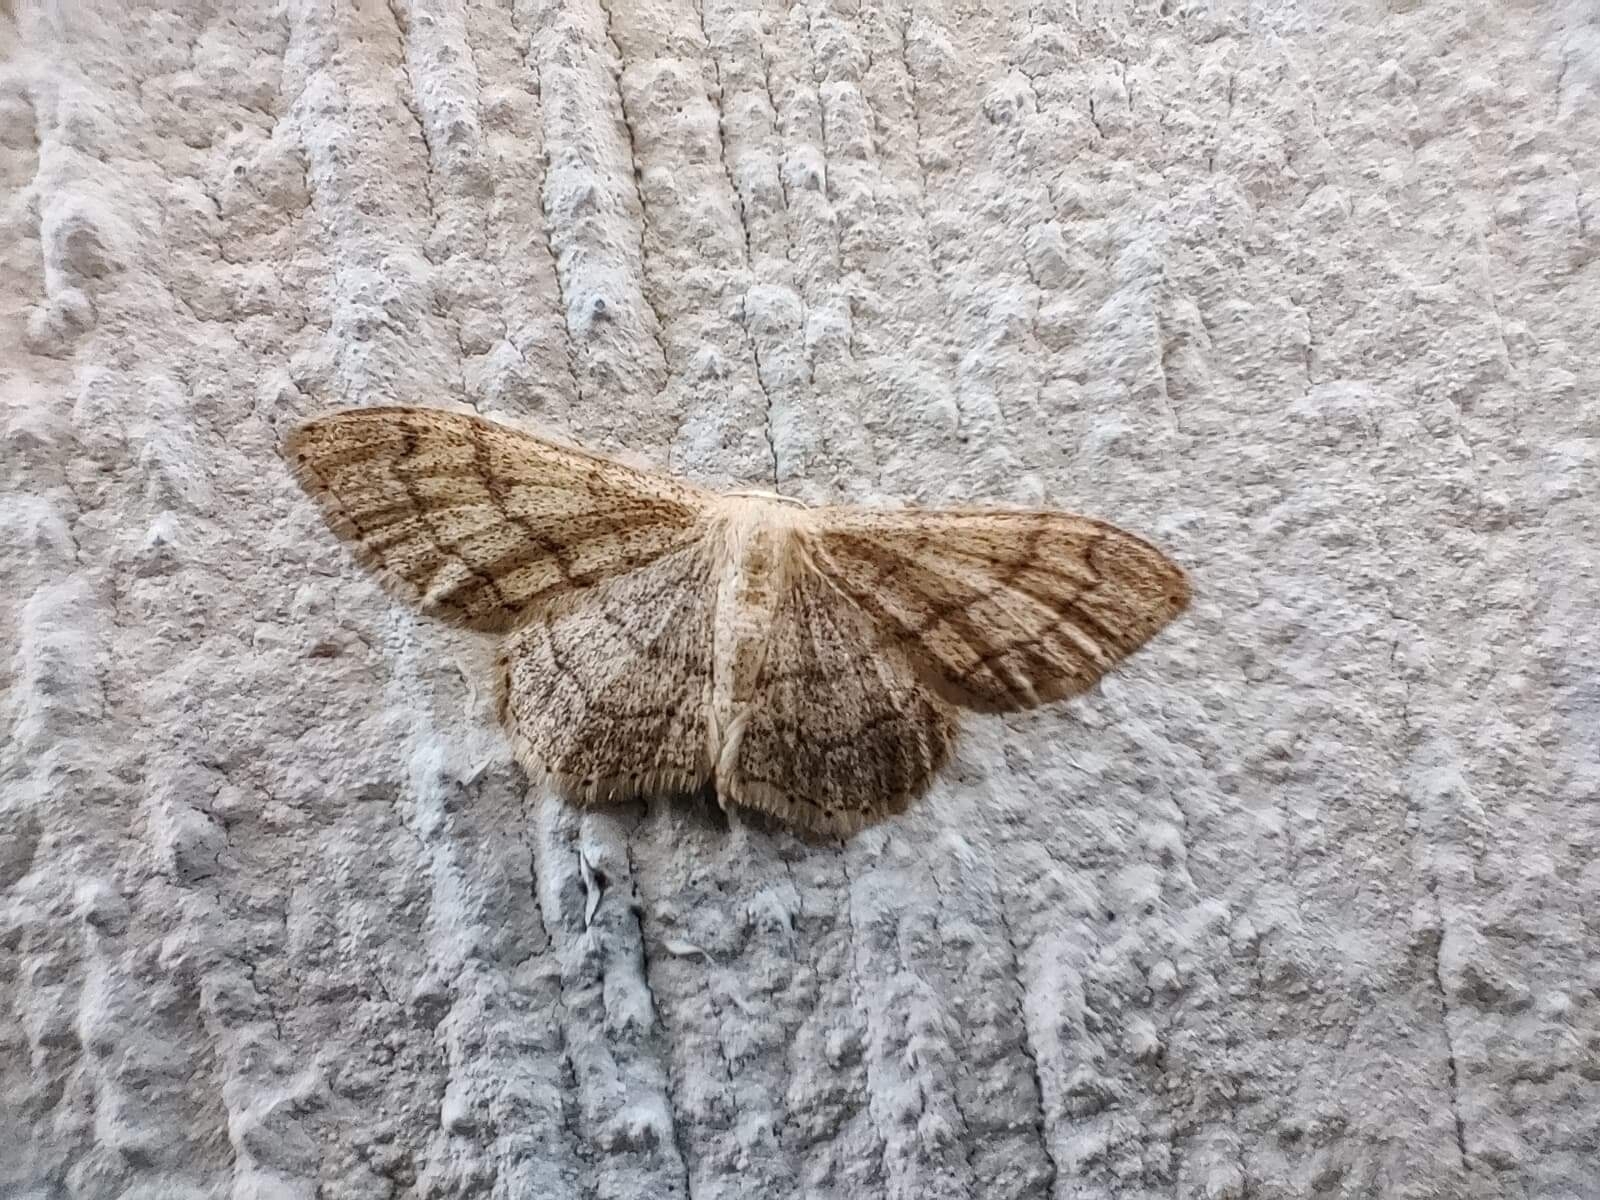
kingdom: Animalia
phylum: Arthropoda
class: Insecta
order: Lepidoptera
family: Geometridae
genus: Idaea
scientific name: Idaea aversata
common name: Riband wave
